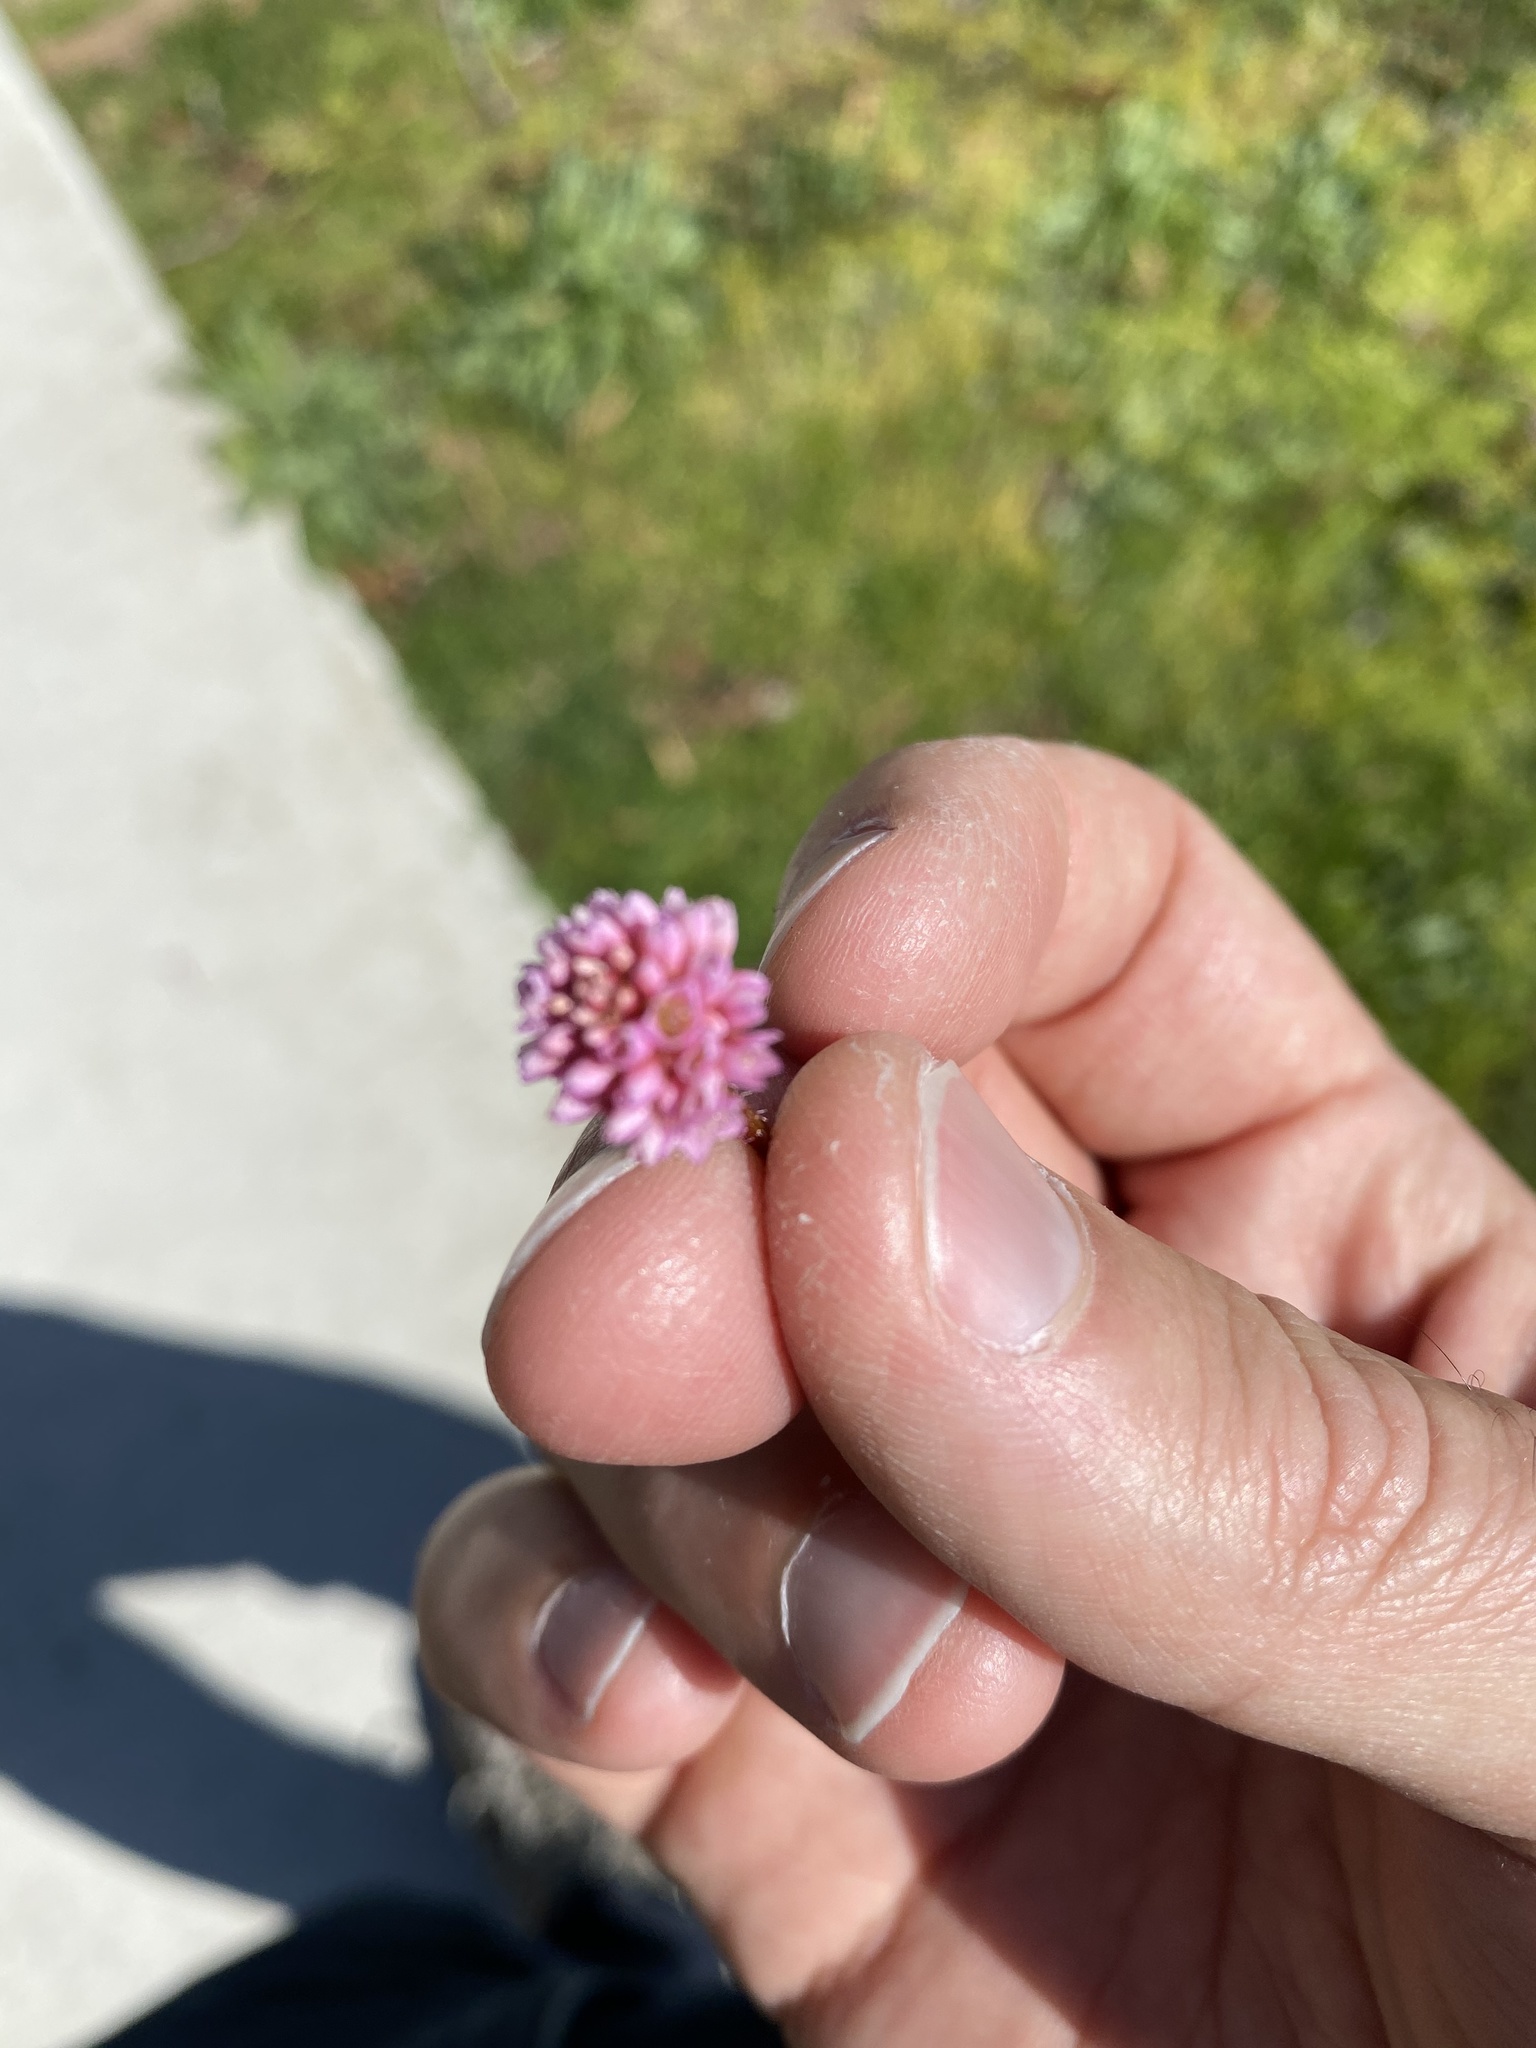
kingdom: Plantae
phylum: Tracheophyta
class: Magnoliopsida
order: Caryophyllales
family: Polygonaceae
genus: Persicaria
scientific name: Persicaria capitata
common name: Pinkhead smartweed
